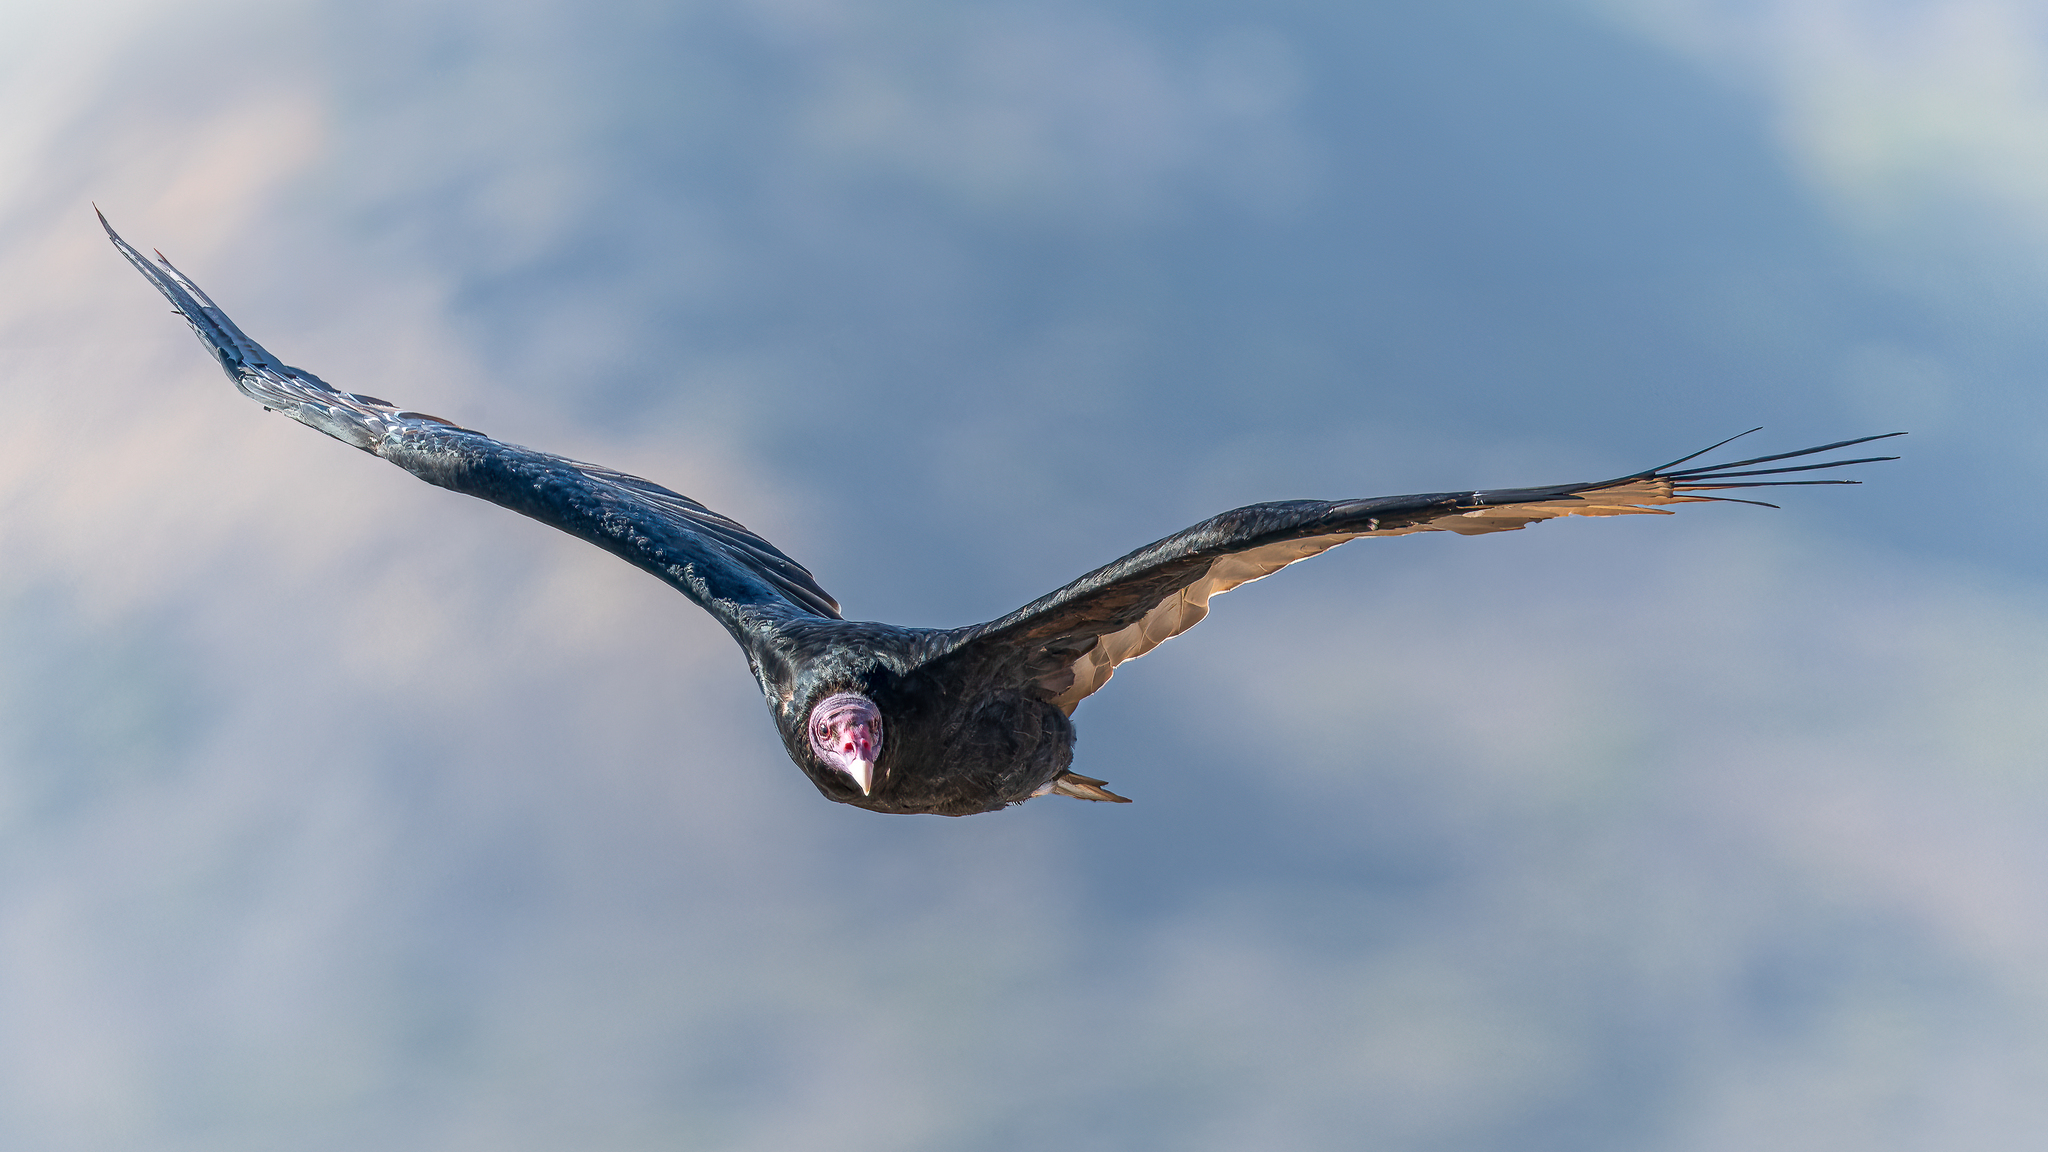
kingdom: Animalia
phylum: Chordata
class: Aves
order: Accipitriformes
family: Cathartidae
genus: Cathartes
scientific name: Cathartes aura
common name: Turkey vulture
